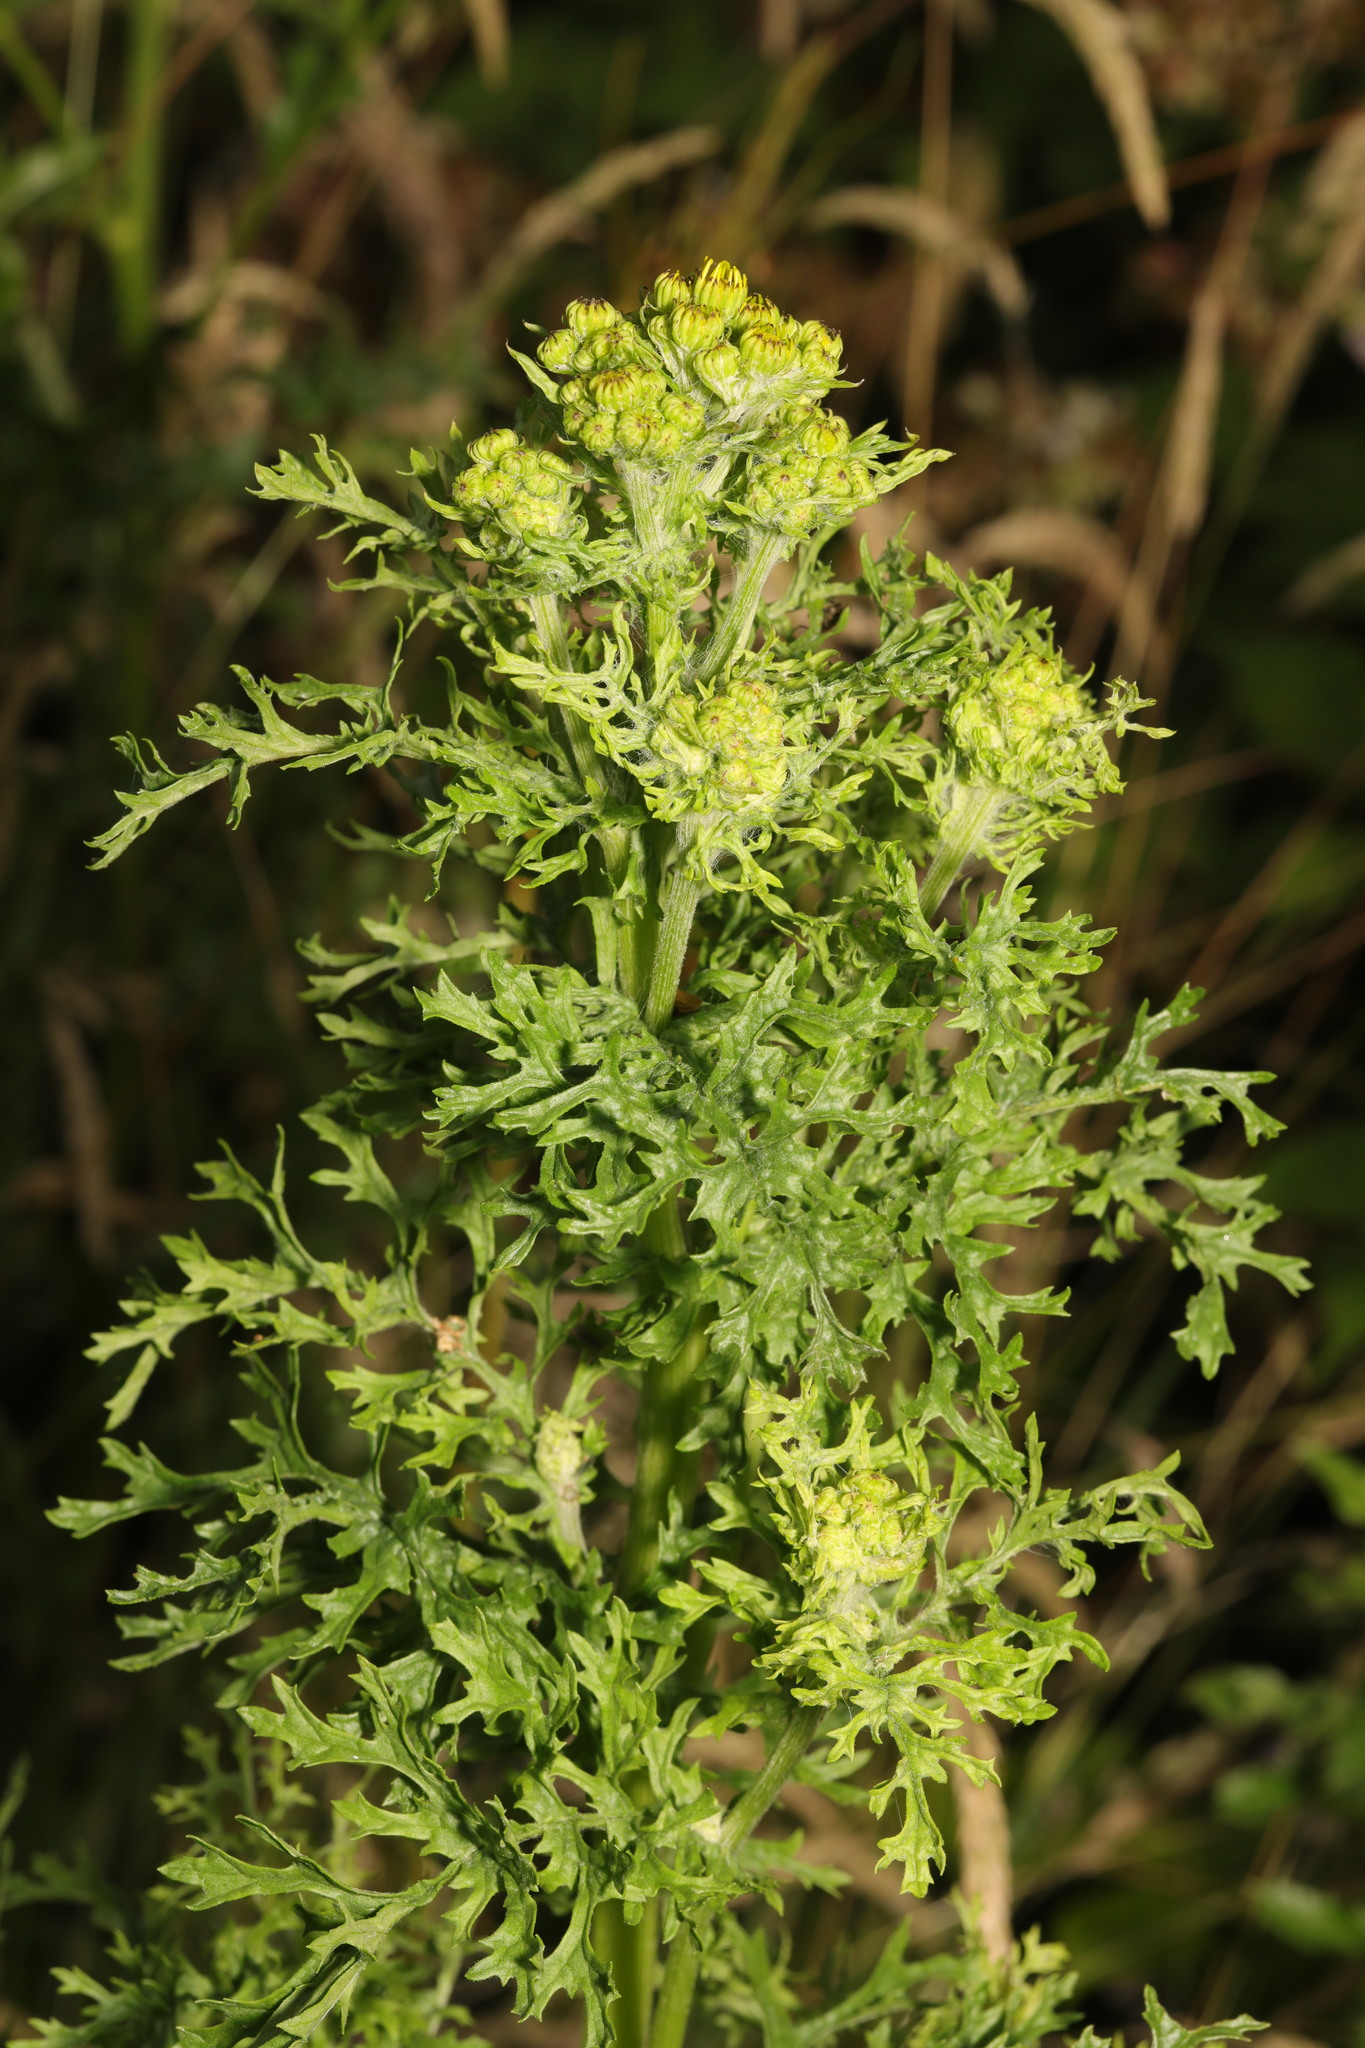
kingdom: Plantae
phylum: Tracheophyta
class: Magnoliopsida
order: Asterales
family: Asteraceae
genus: Jacobaea
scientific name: Jacobaea vulgaris
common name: Stinking willie
